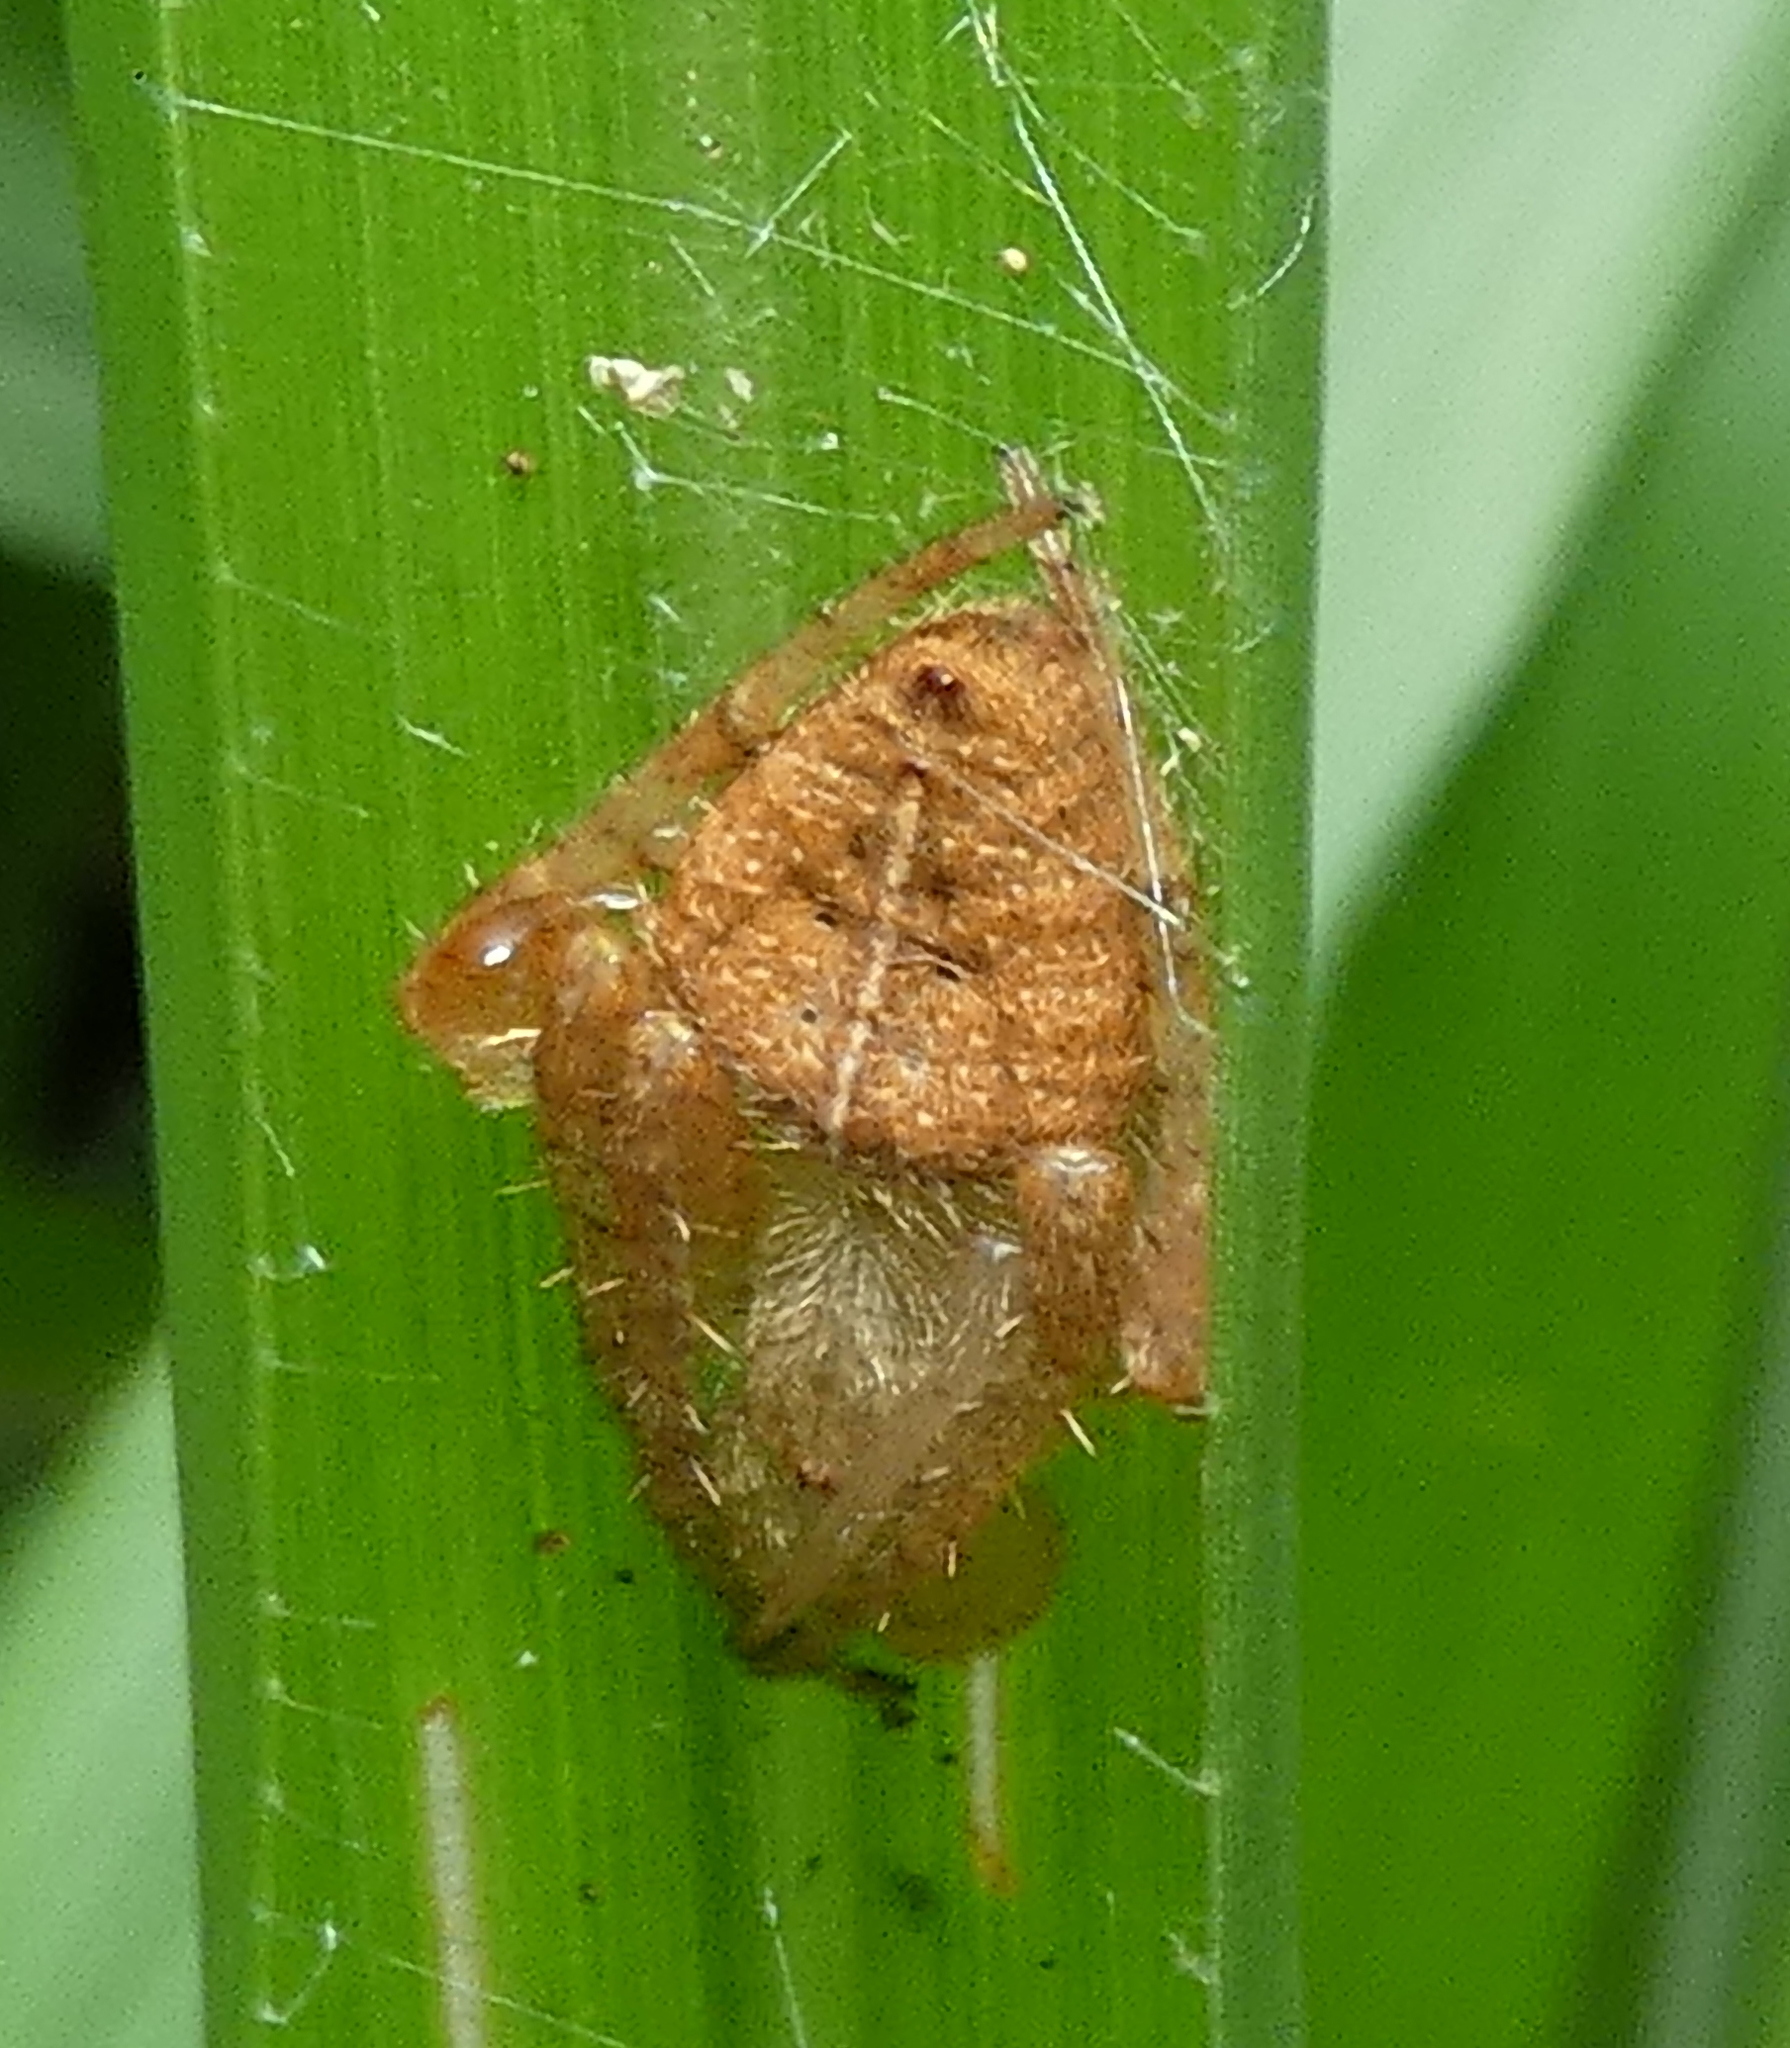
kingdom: Animalia
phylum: Arthropoda
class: Arachnida
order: Araneae
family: Araneidae
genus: Eriophora
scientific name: Eriophora edax
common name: Orb weavers
